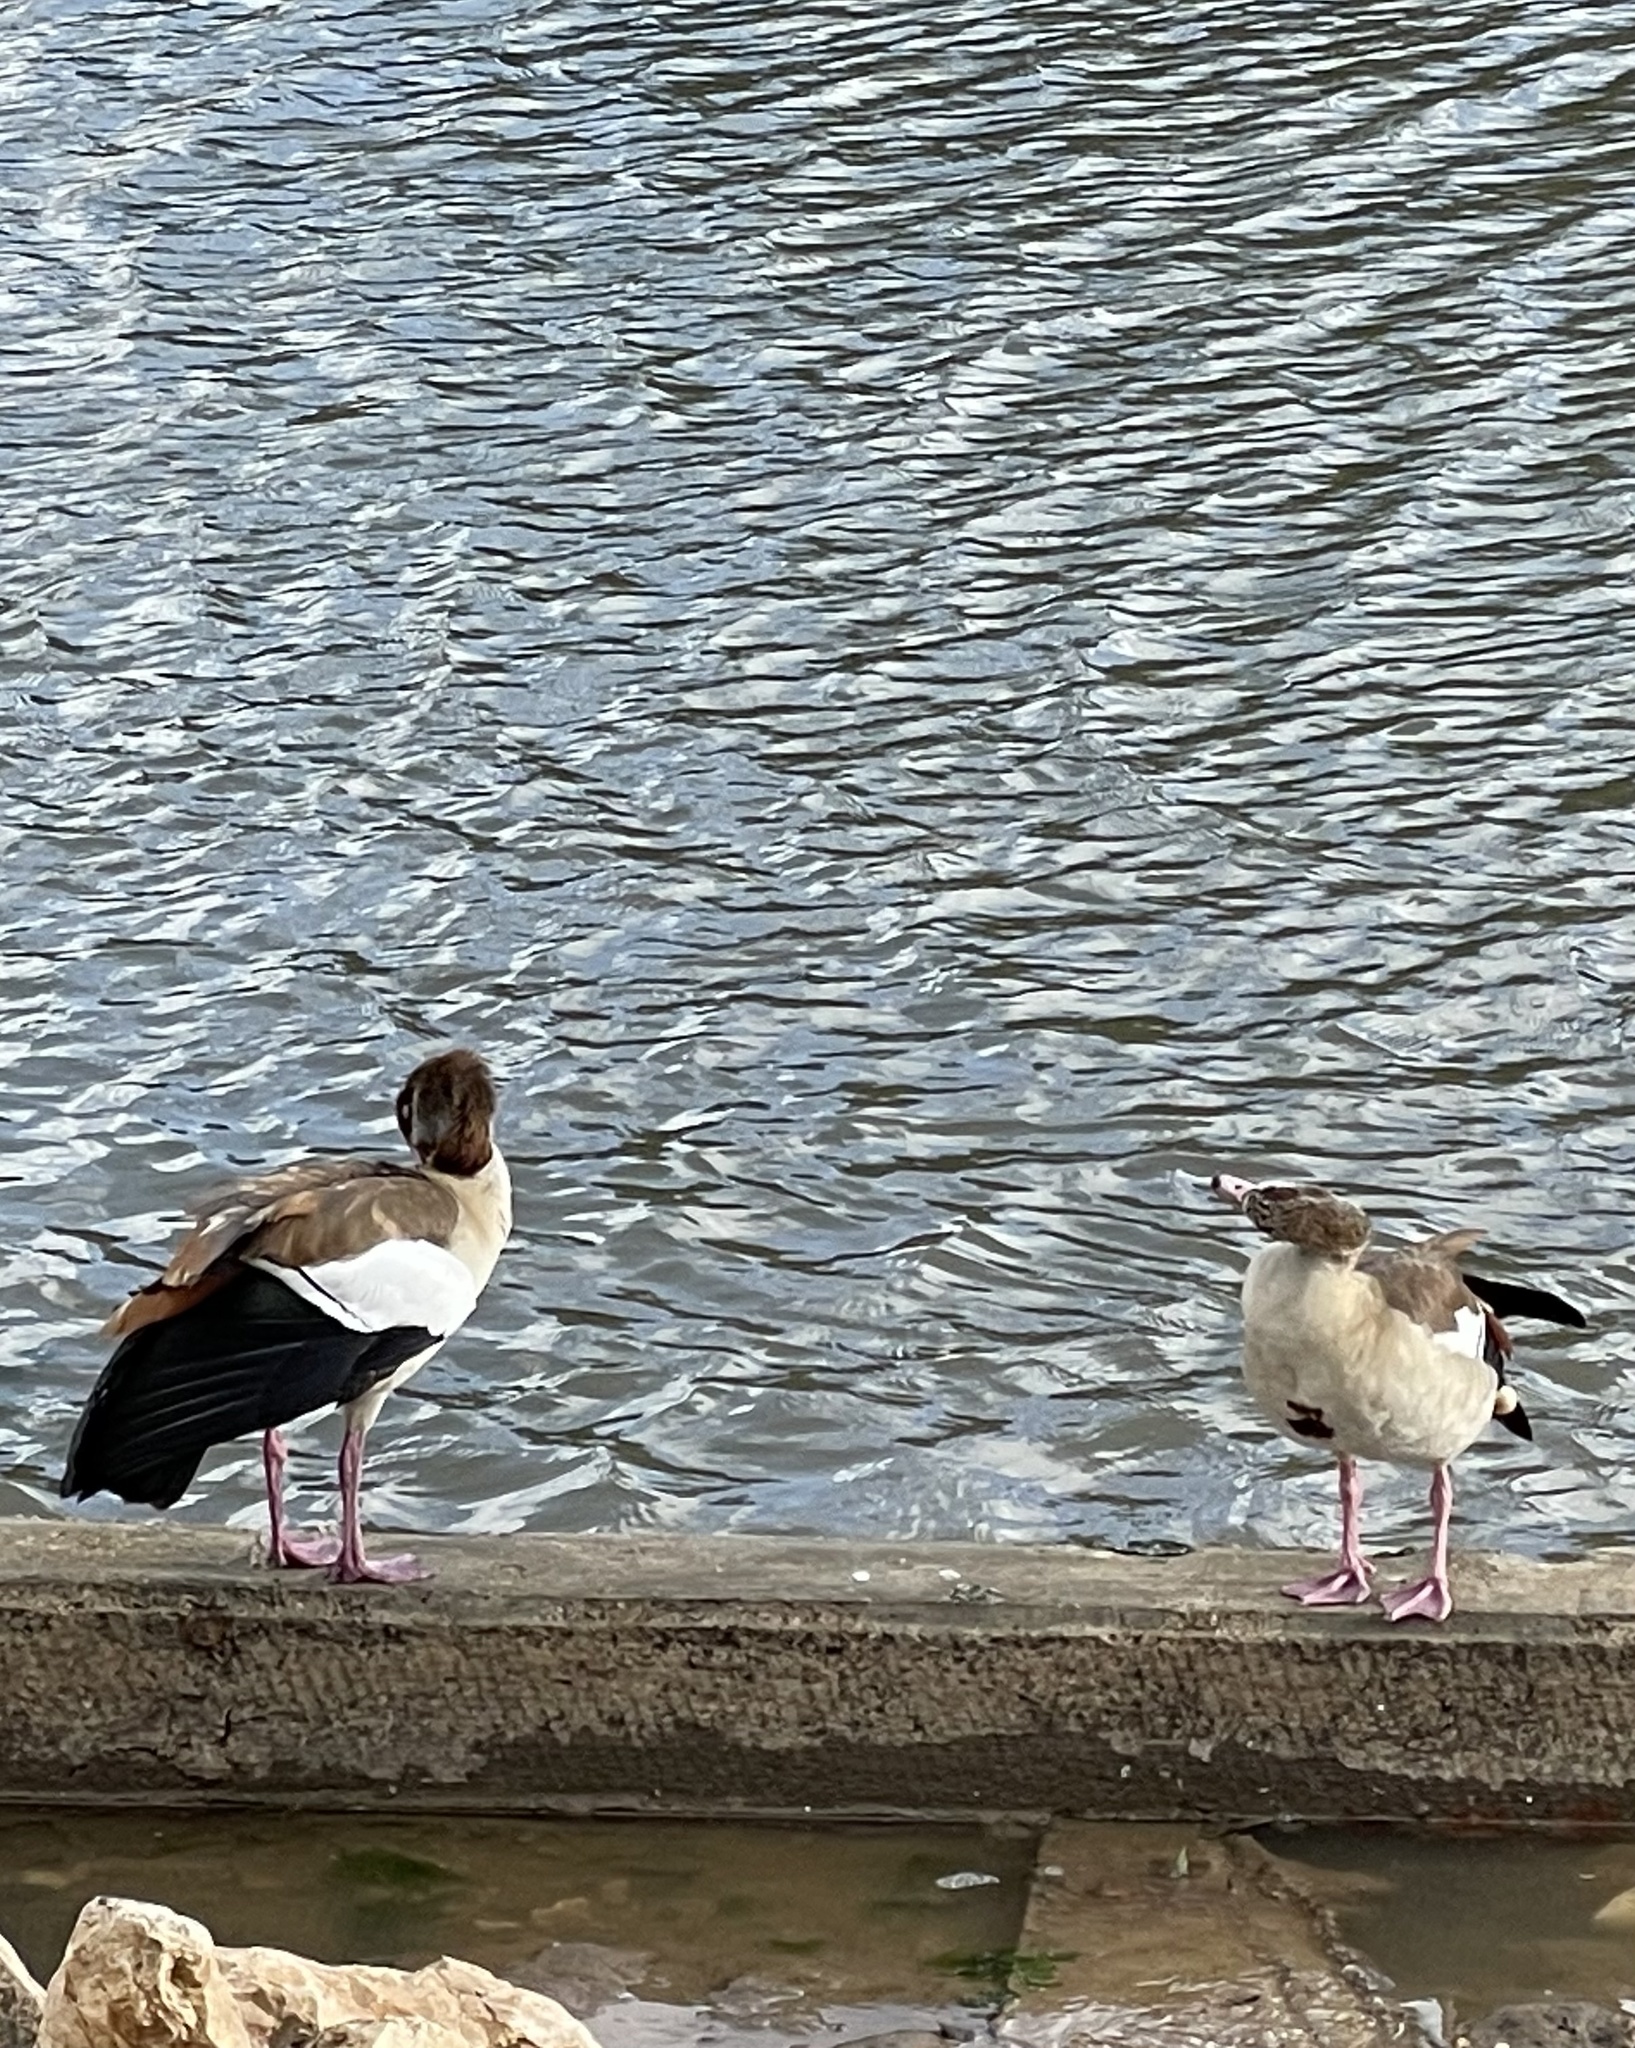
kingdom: Animalia
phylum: Chordata
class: Aves
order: Anseriformes
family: Anatidae
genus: Alopochen
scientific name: Alopochen aegyptiaca
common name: Egyptian goose
